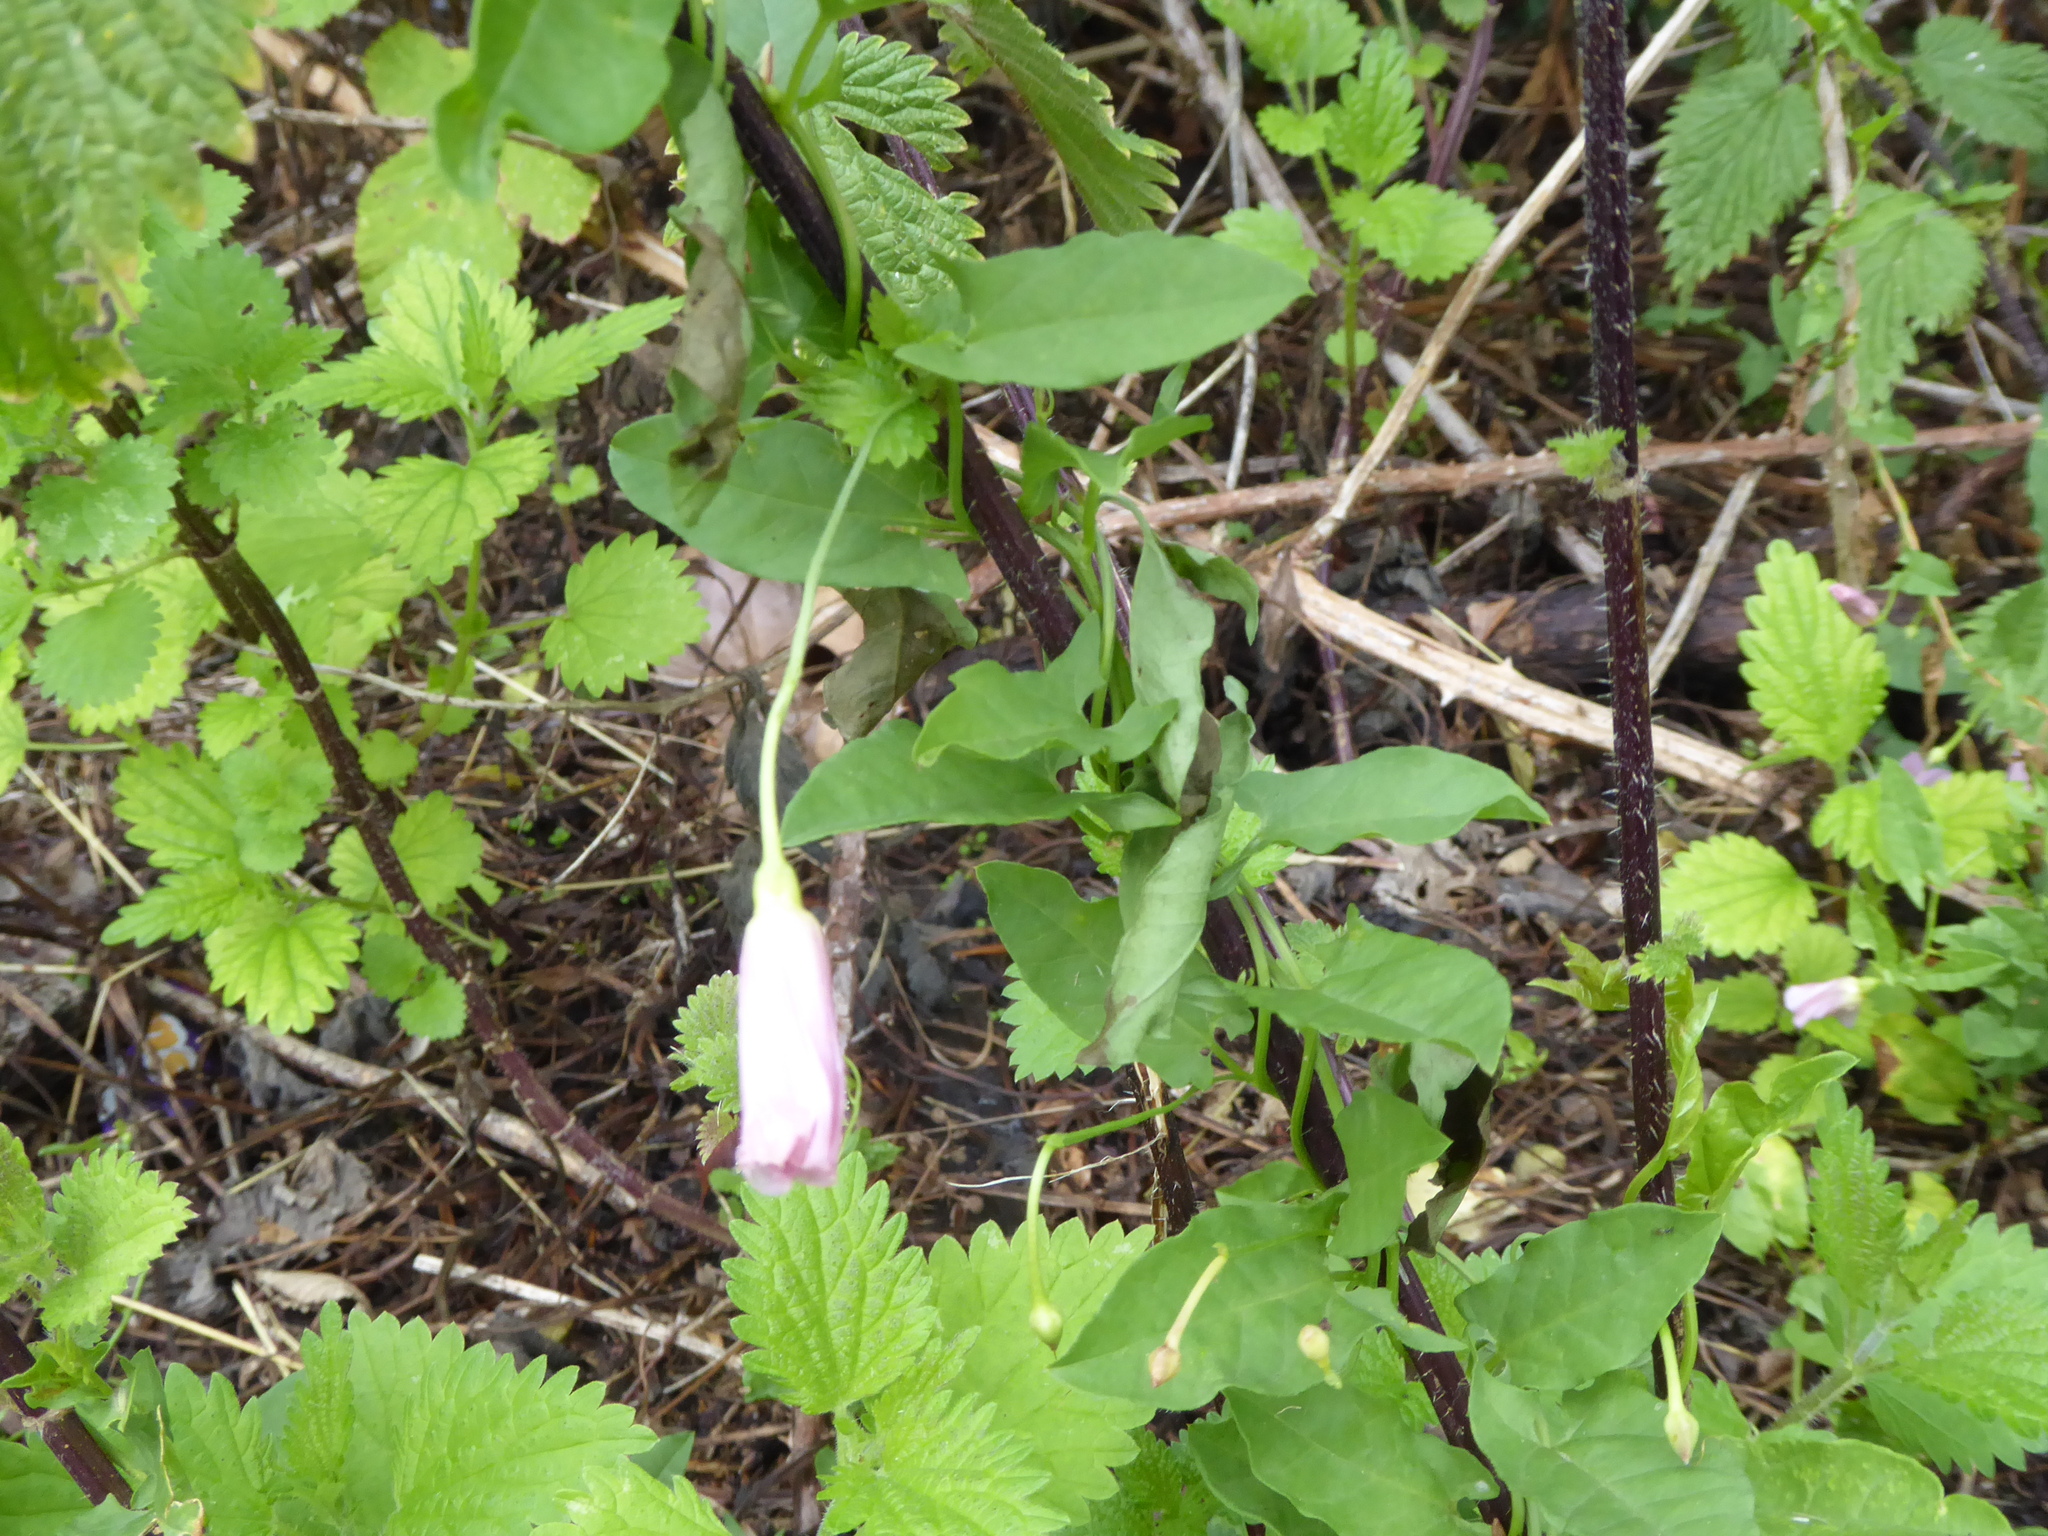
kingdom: Plantae
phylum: Tracheophyta
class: Magnoliopsida
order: Solanales
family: Convolvulaceae
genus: Convolvulus
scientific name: Convolvulus arvensis
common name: Field bindweed
